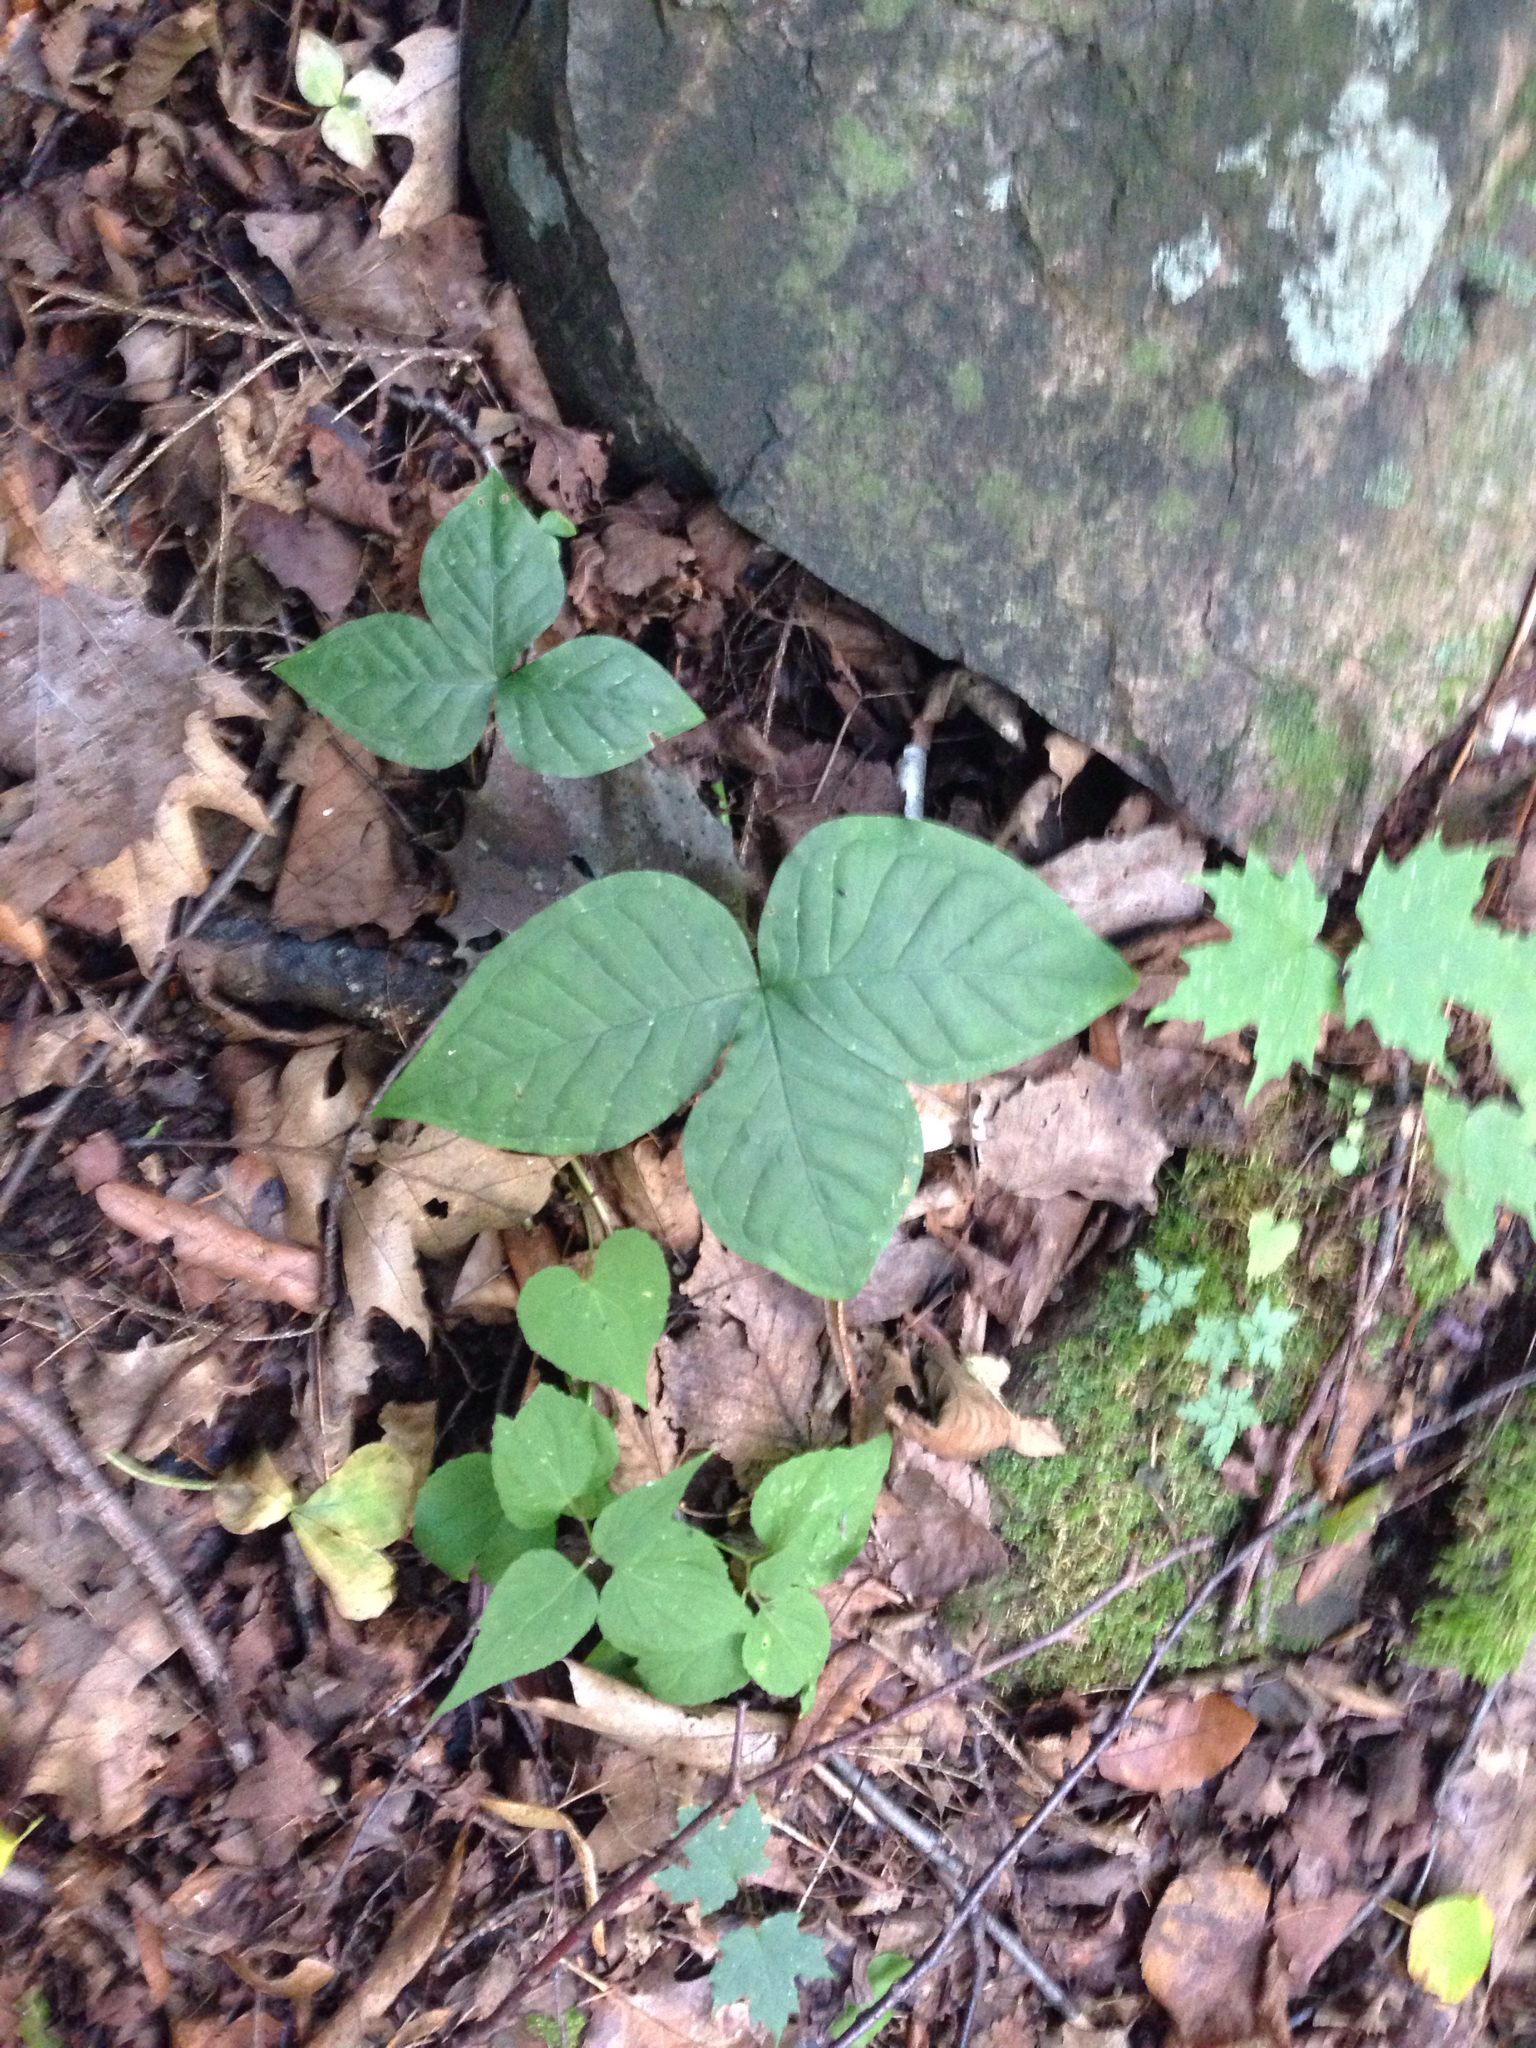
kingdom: Plantae
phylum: Tracheophyta
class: Liliopsida
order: Alismatales
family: Araceae
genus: Arisaema
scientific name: Arisaema triphyllum
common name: Jack-in-the-pulpit
